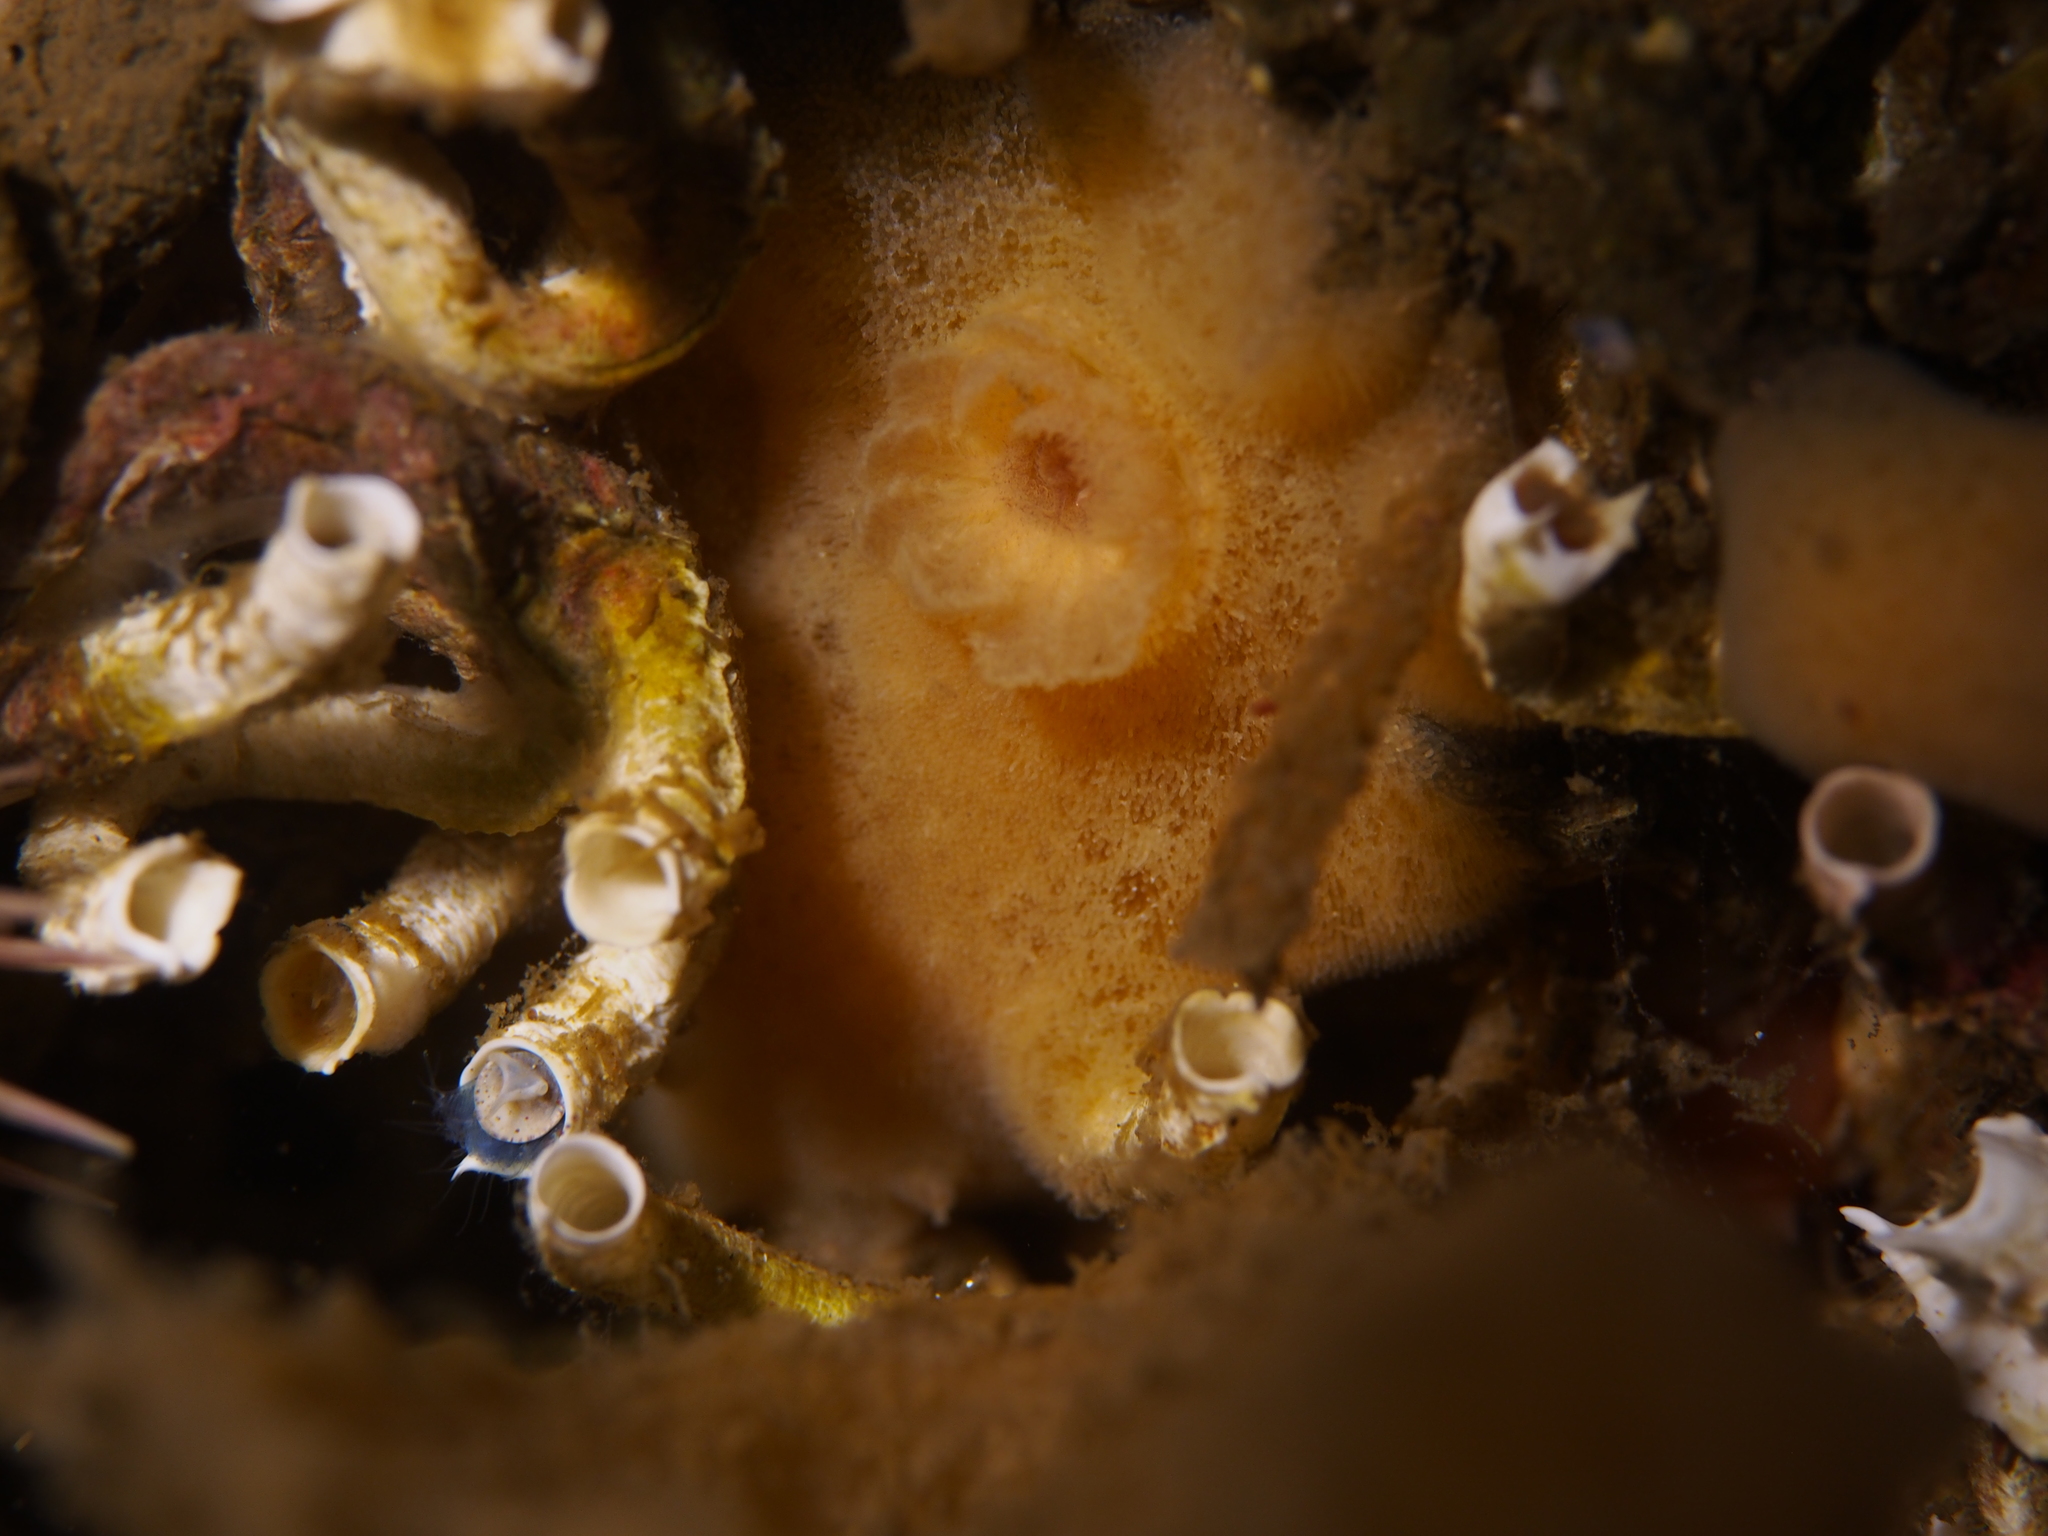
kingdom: Animalia
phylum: Mollusca
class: Gastropoda
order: Nudibranchia
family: Discodorididae
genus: Jorunna
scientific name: Jorunna tomentosa
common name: Grey sea slug
